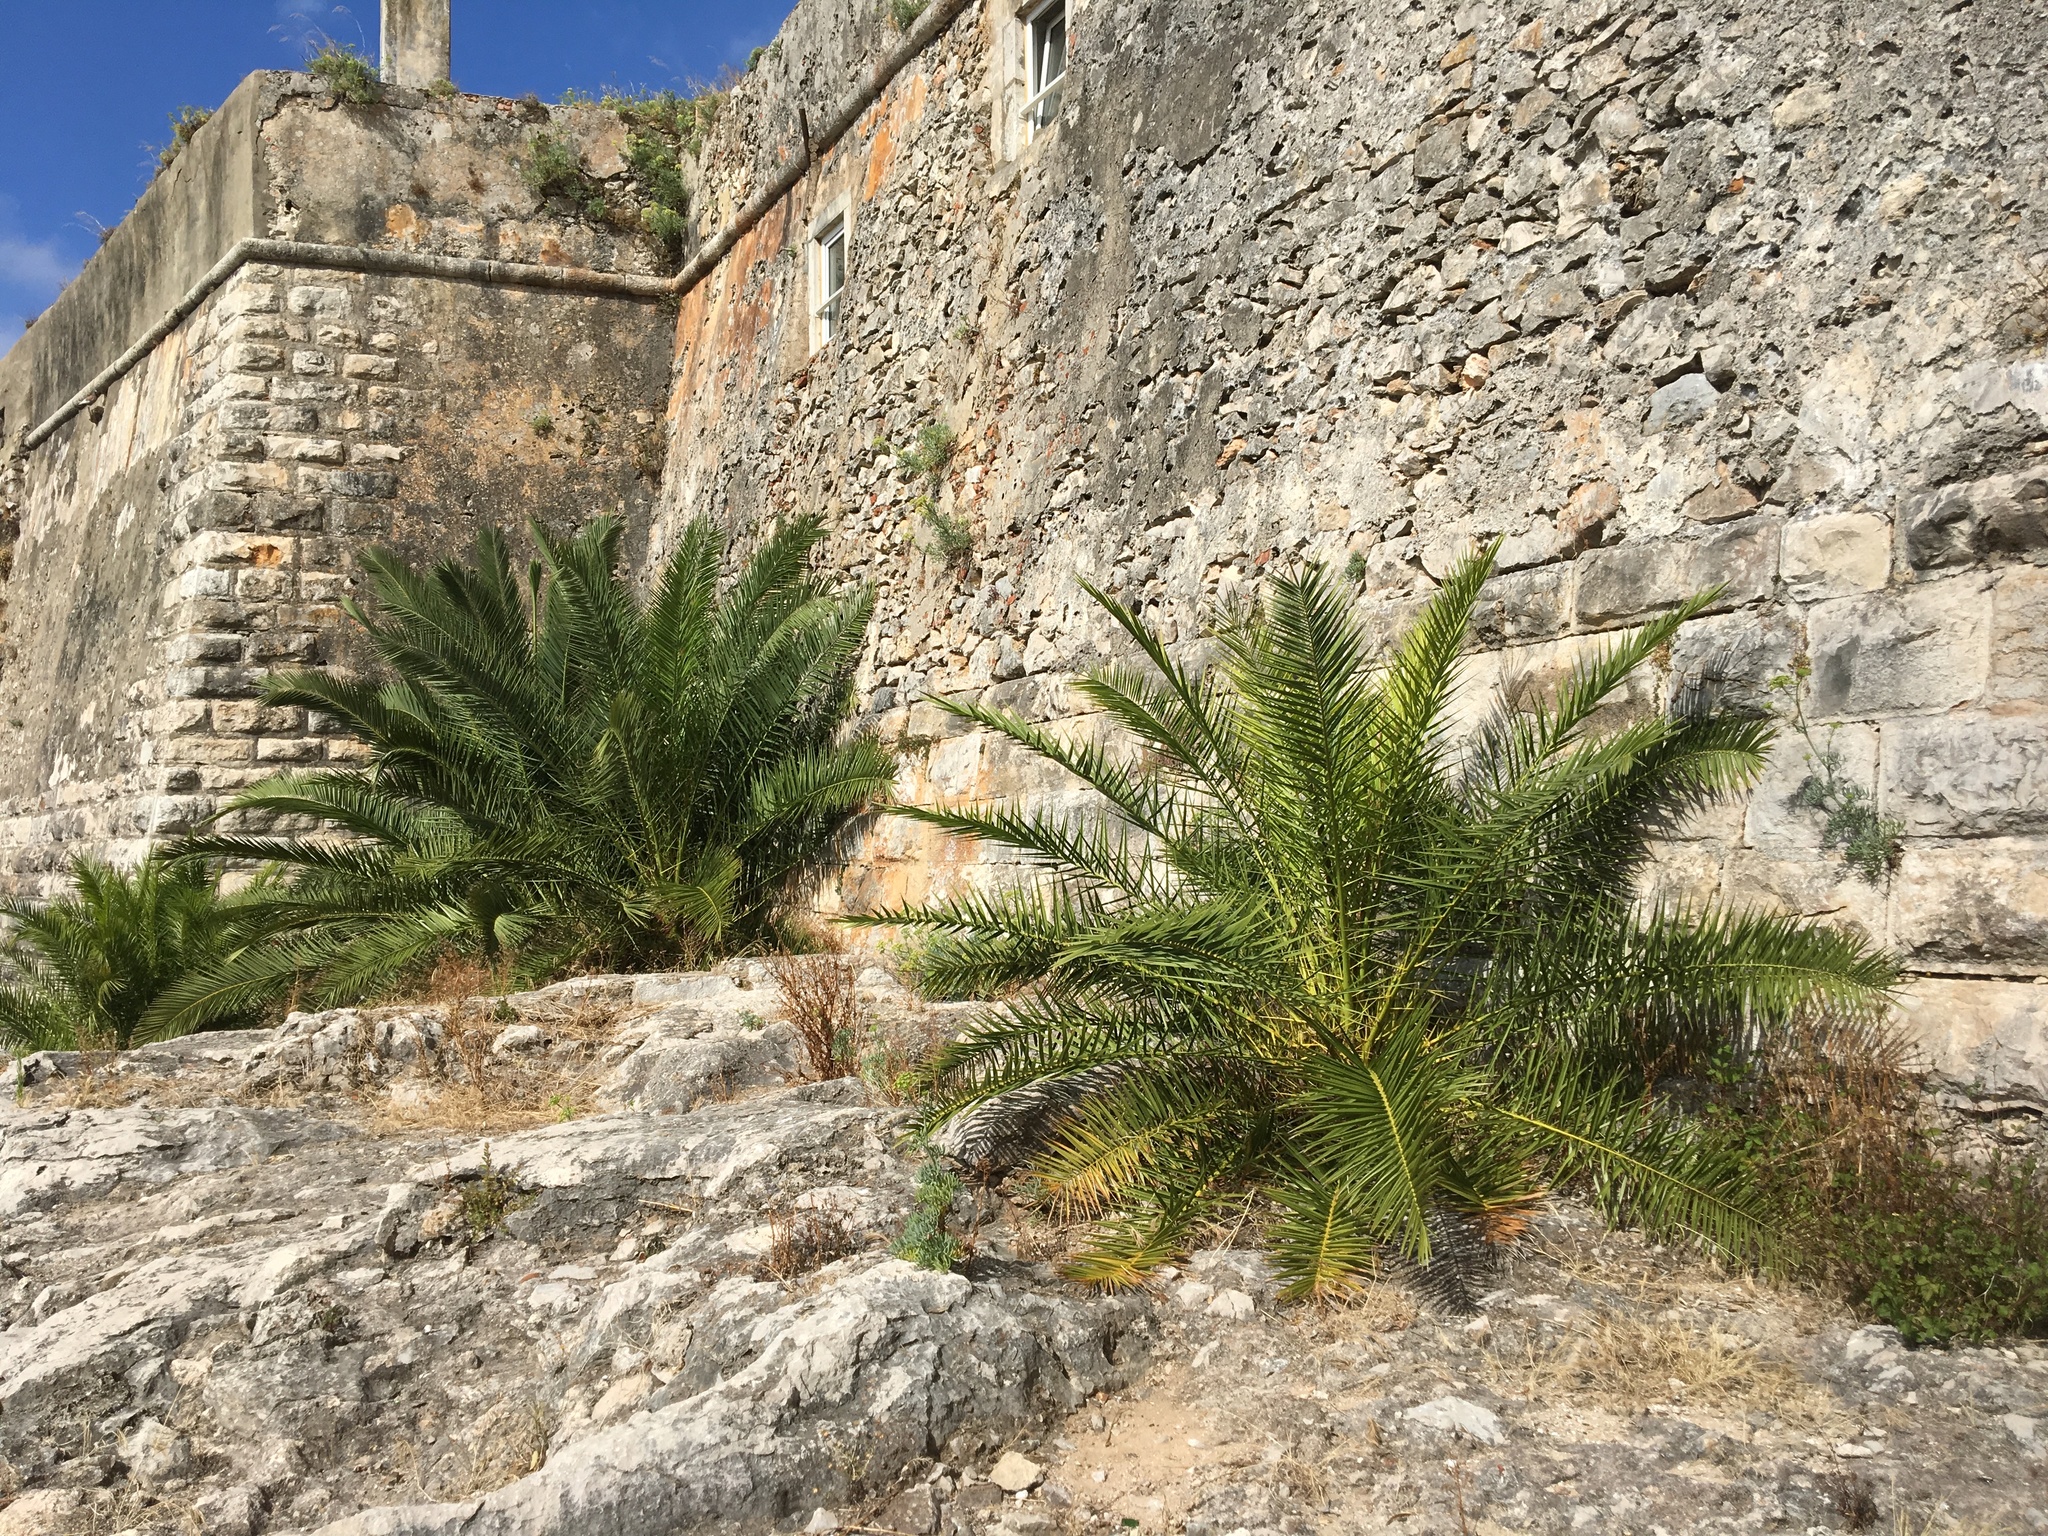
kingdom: Plantae
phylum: Tracheophyta
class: Liliopsida
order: Arecales
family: Arecaceae
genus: Phoenix
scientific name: Phoenix canariensis
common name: Canary island date palm
